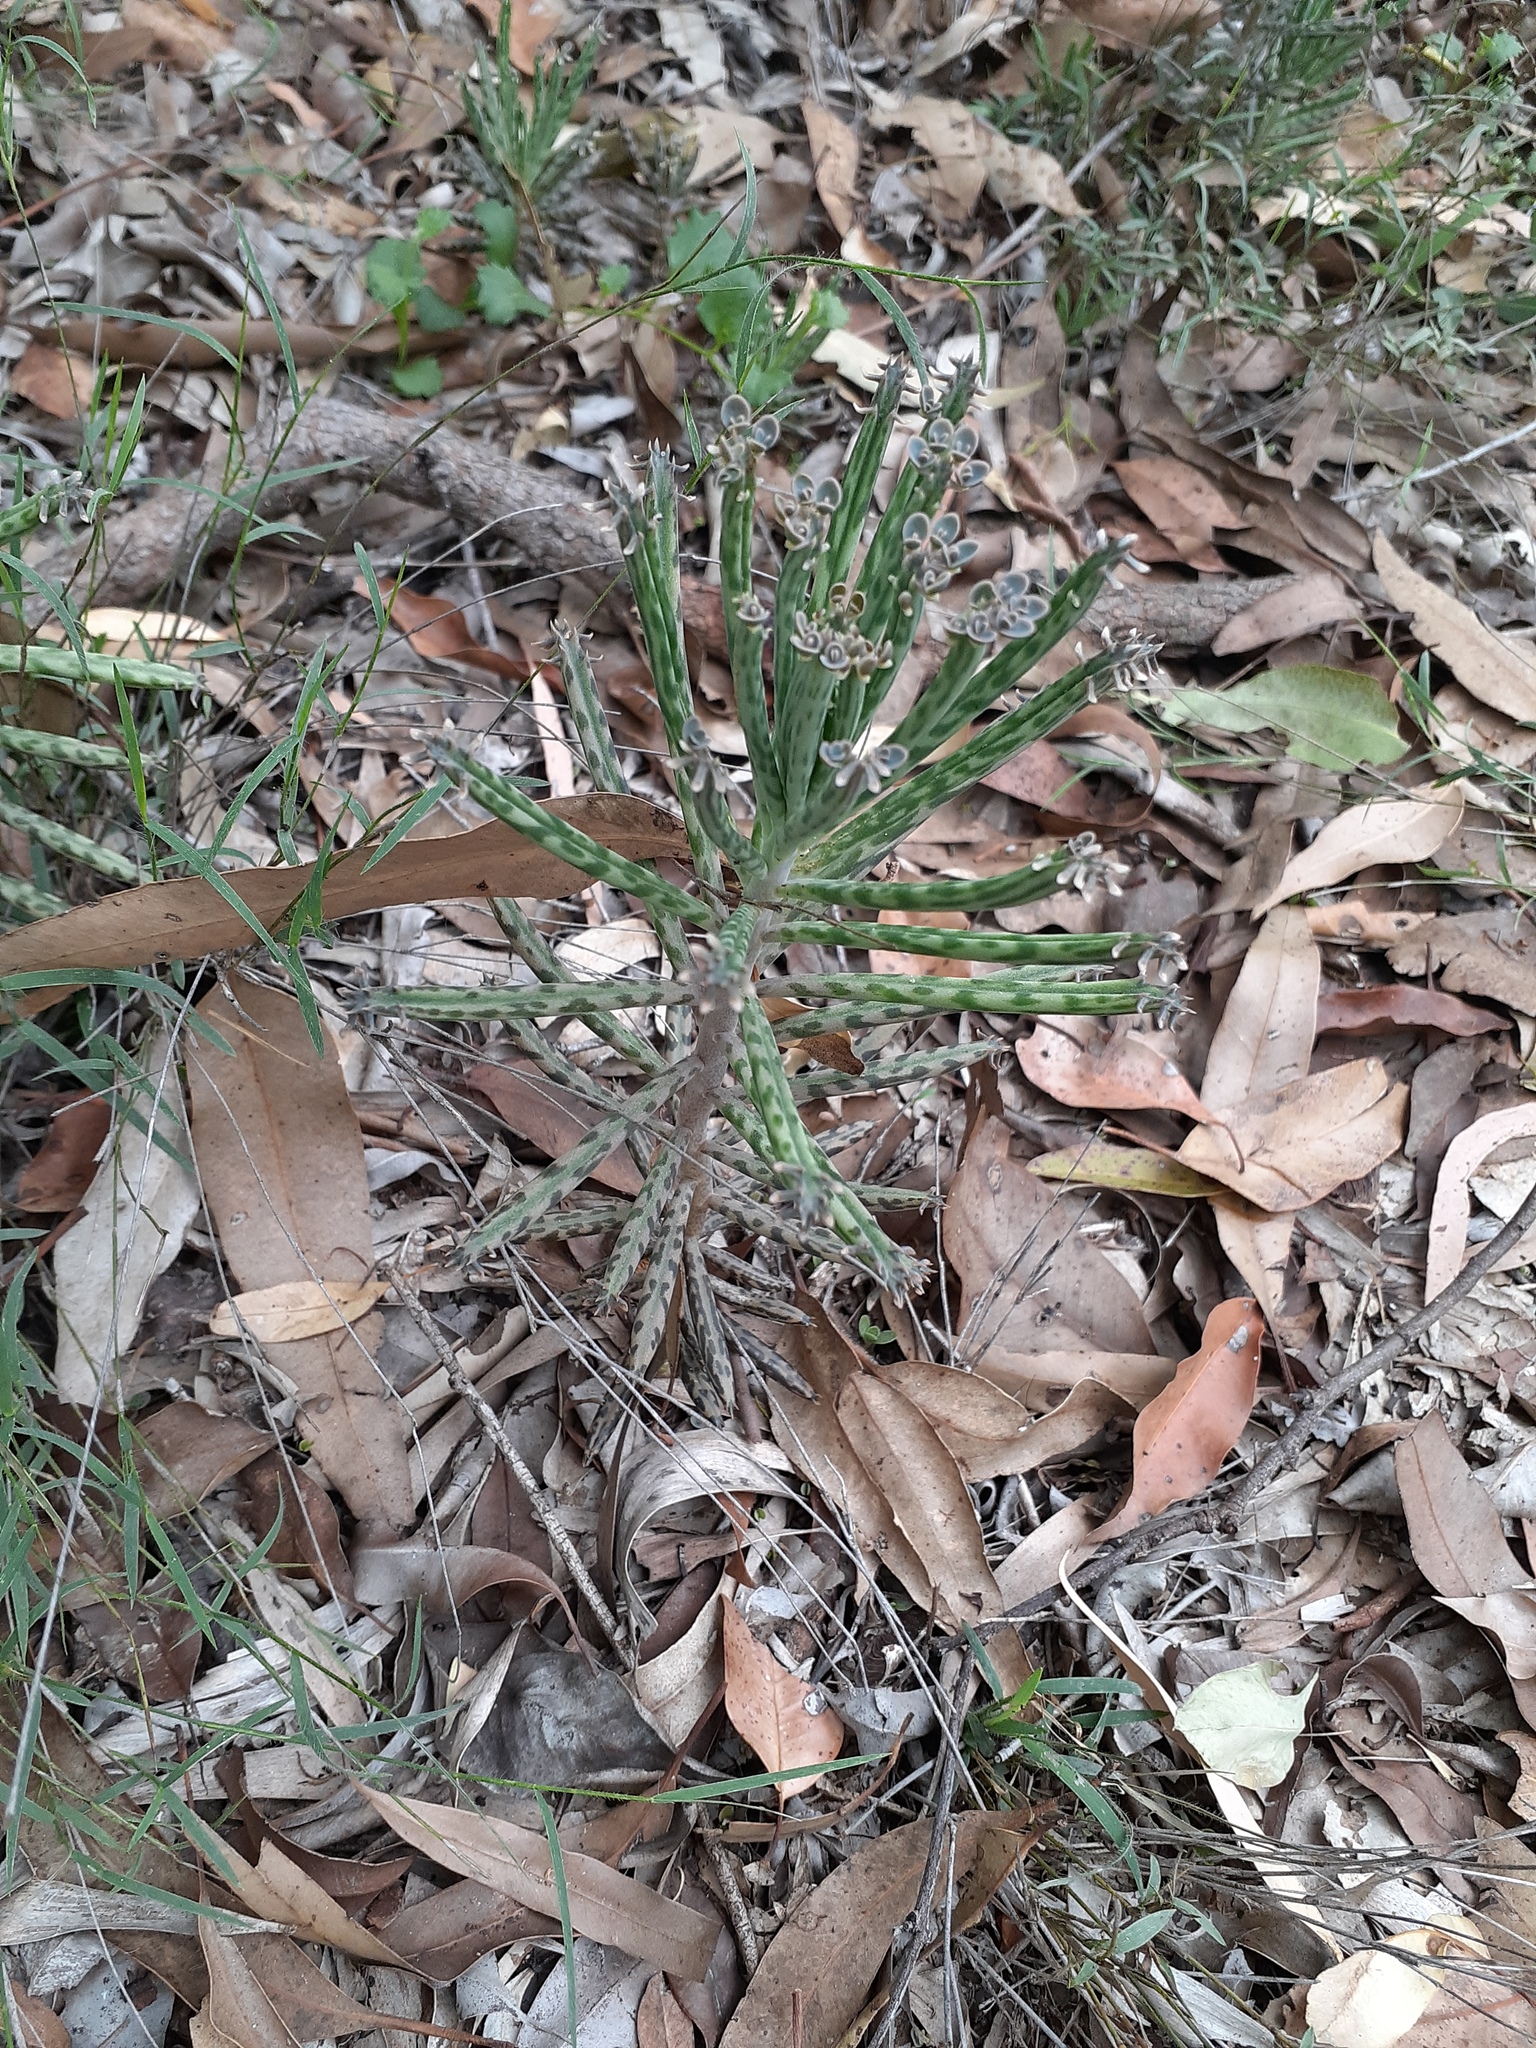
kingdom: Plantae
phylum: Tracheophyta
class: Magnoliopsida
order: Saxifragales
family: Crassulaceae
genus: Kalanchoe
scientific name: Kalanchoe delagoensis
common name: Chandelier plant
